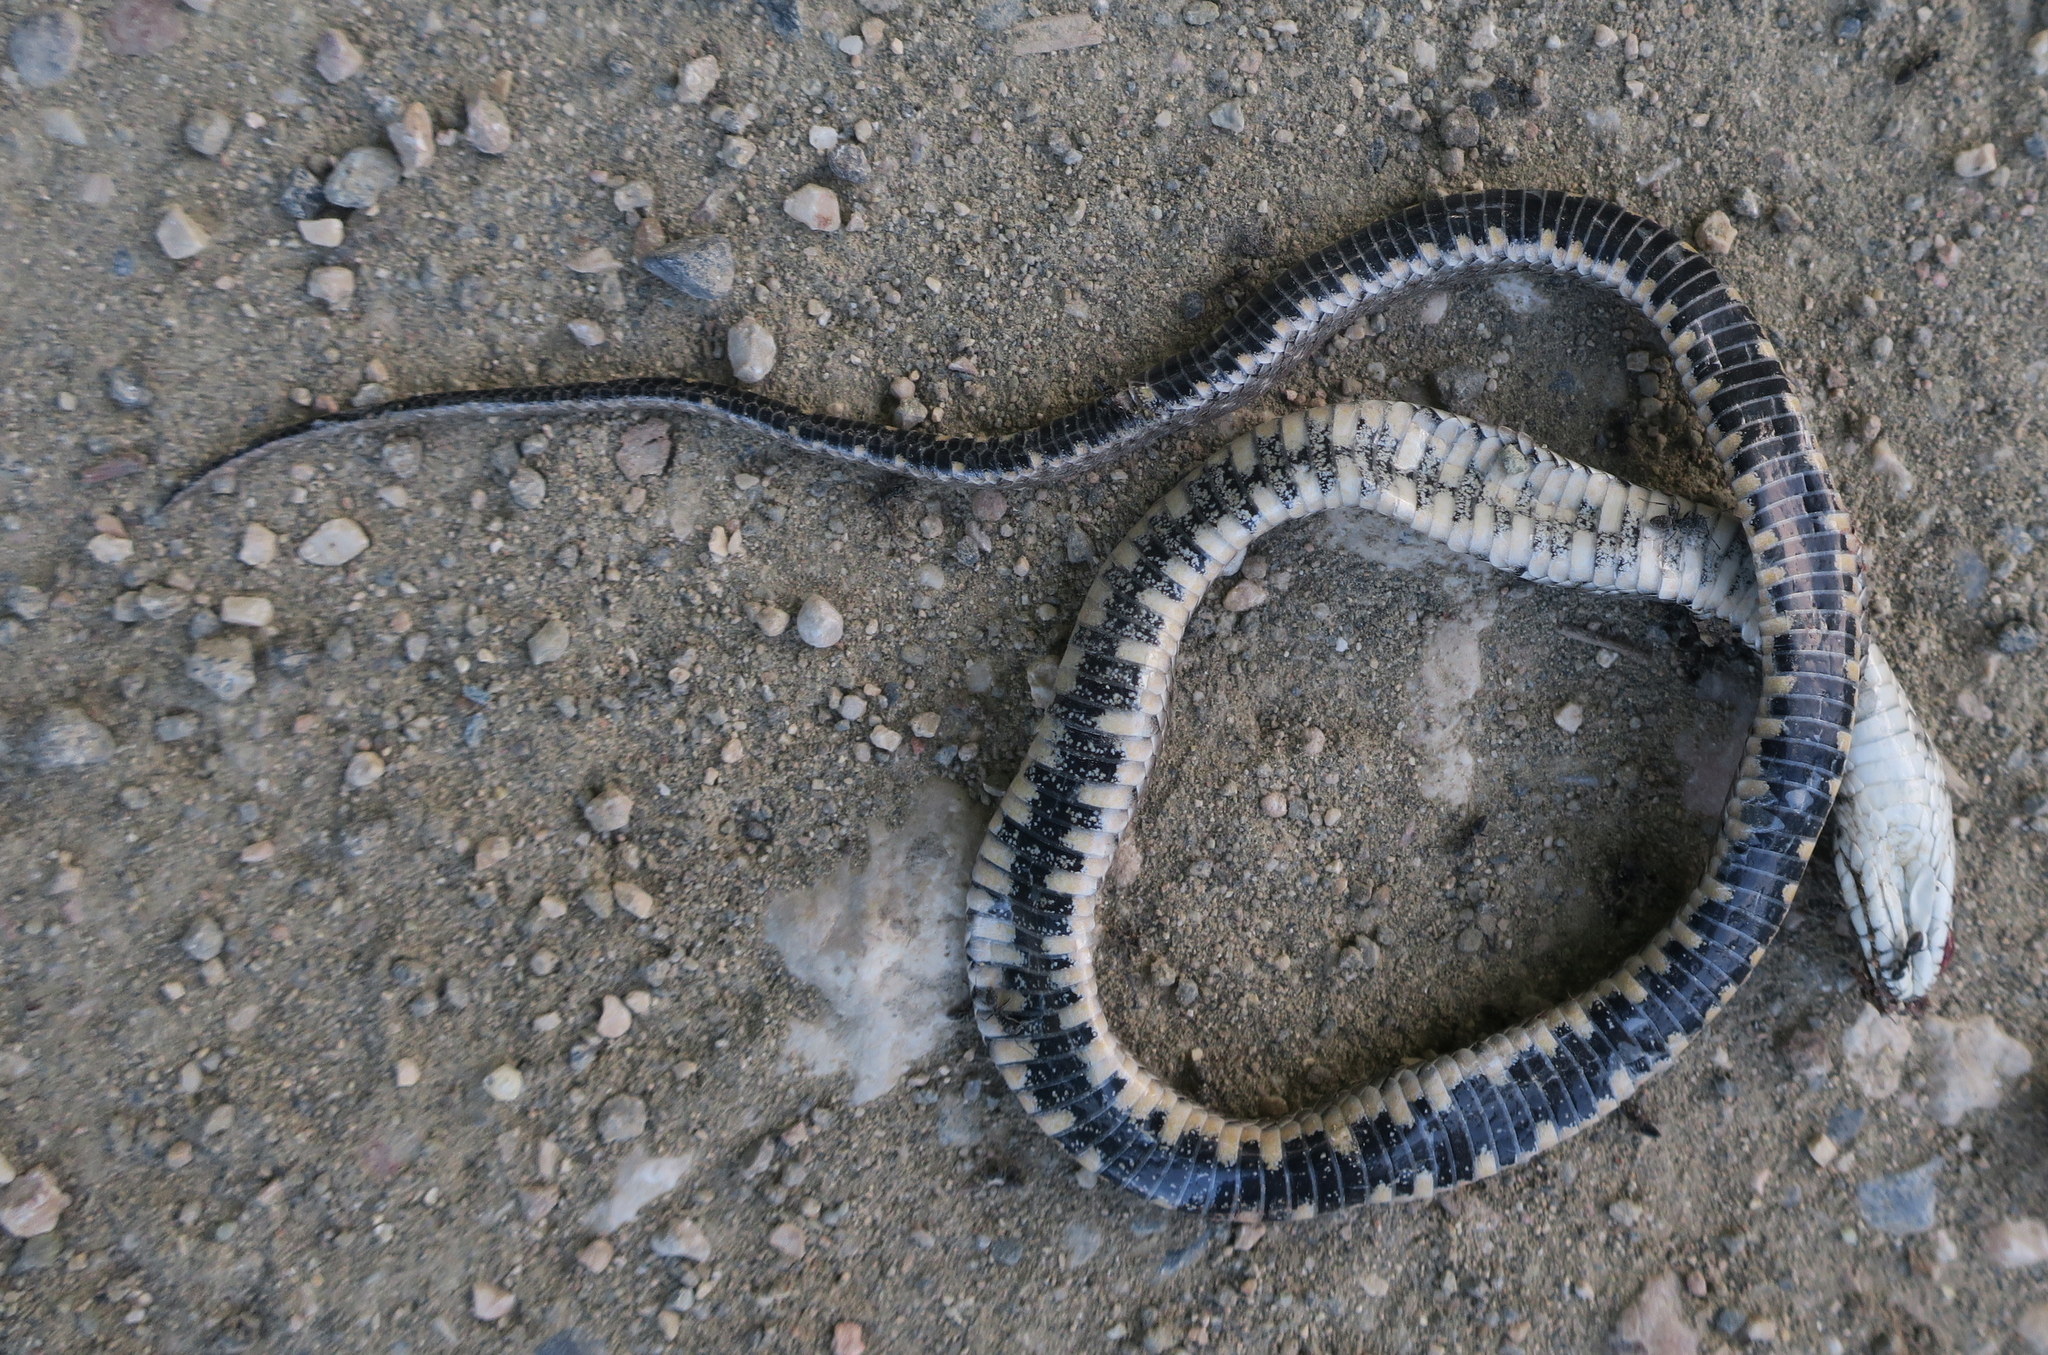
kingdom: Animalia
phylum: Chordata
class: Squamata
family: Colubridae
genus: Natrix
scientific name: Natrix tessellata
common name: Dice snake
